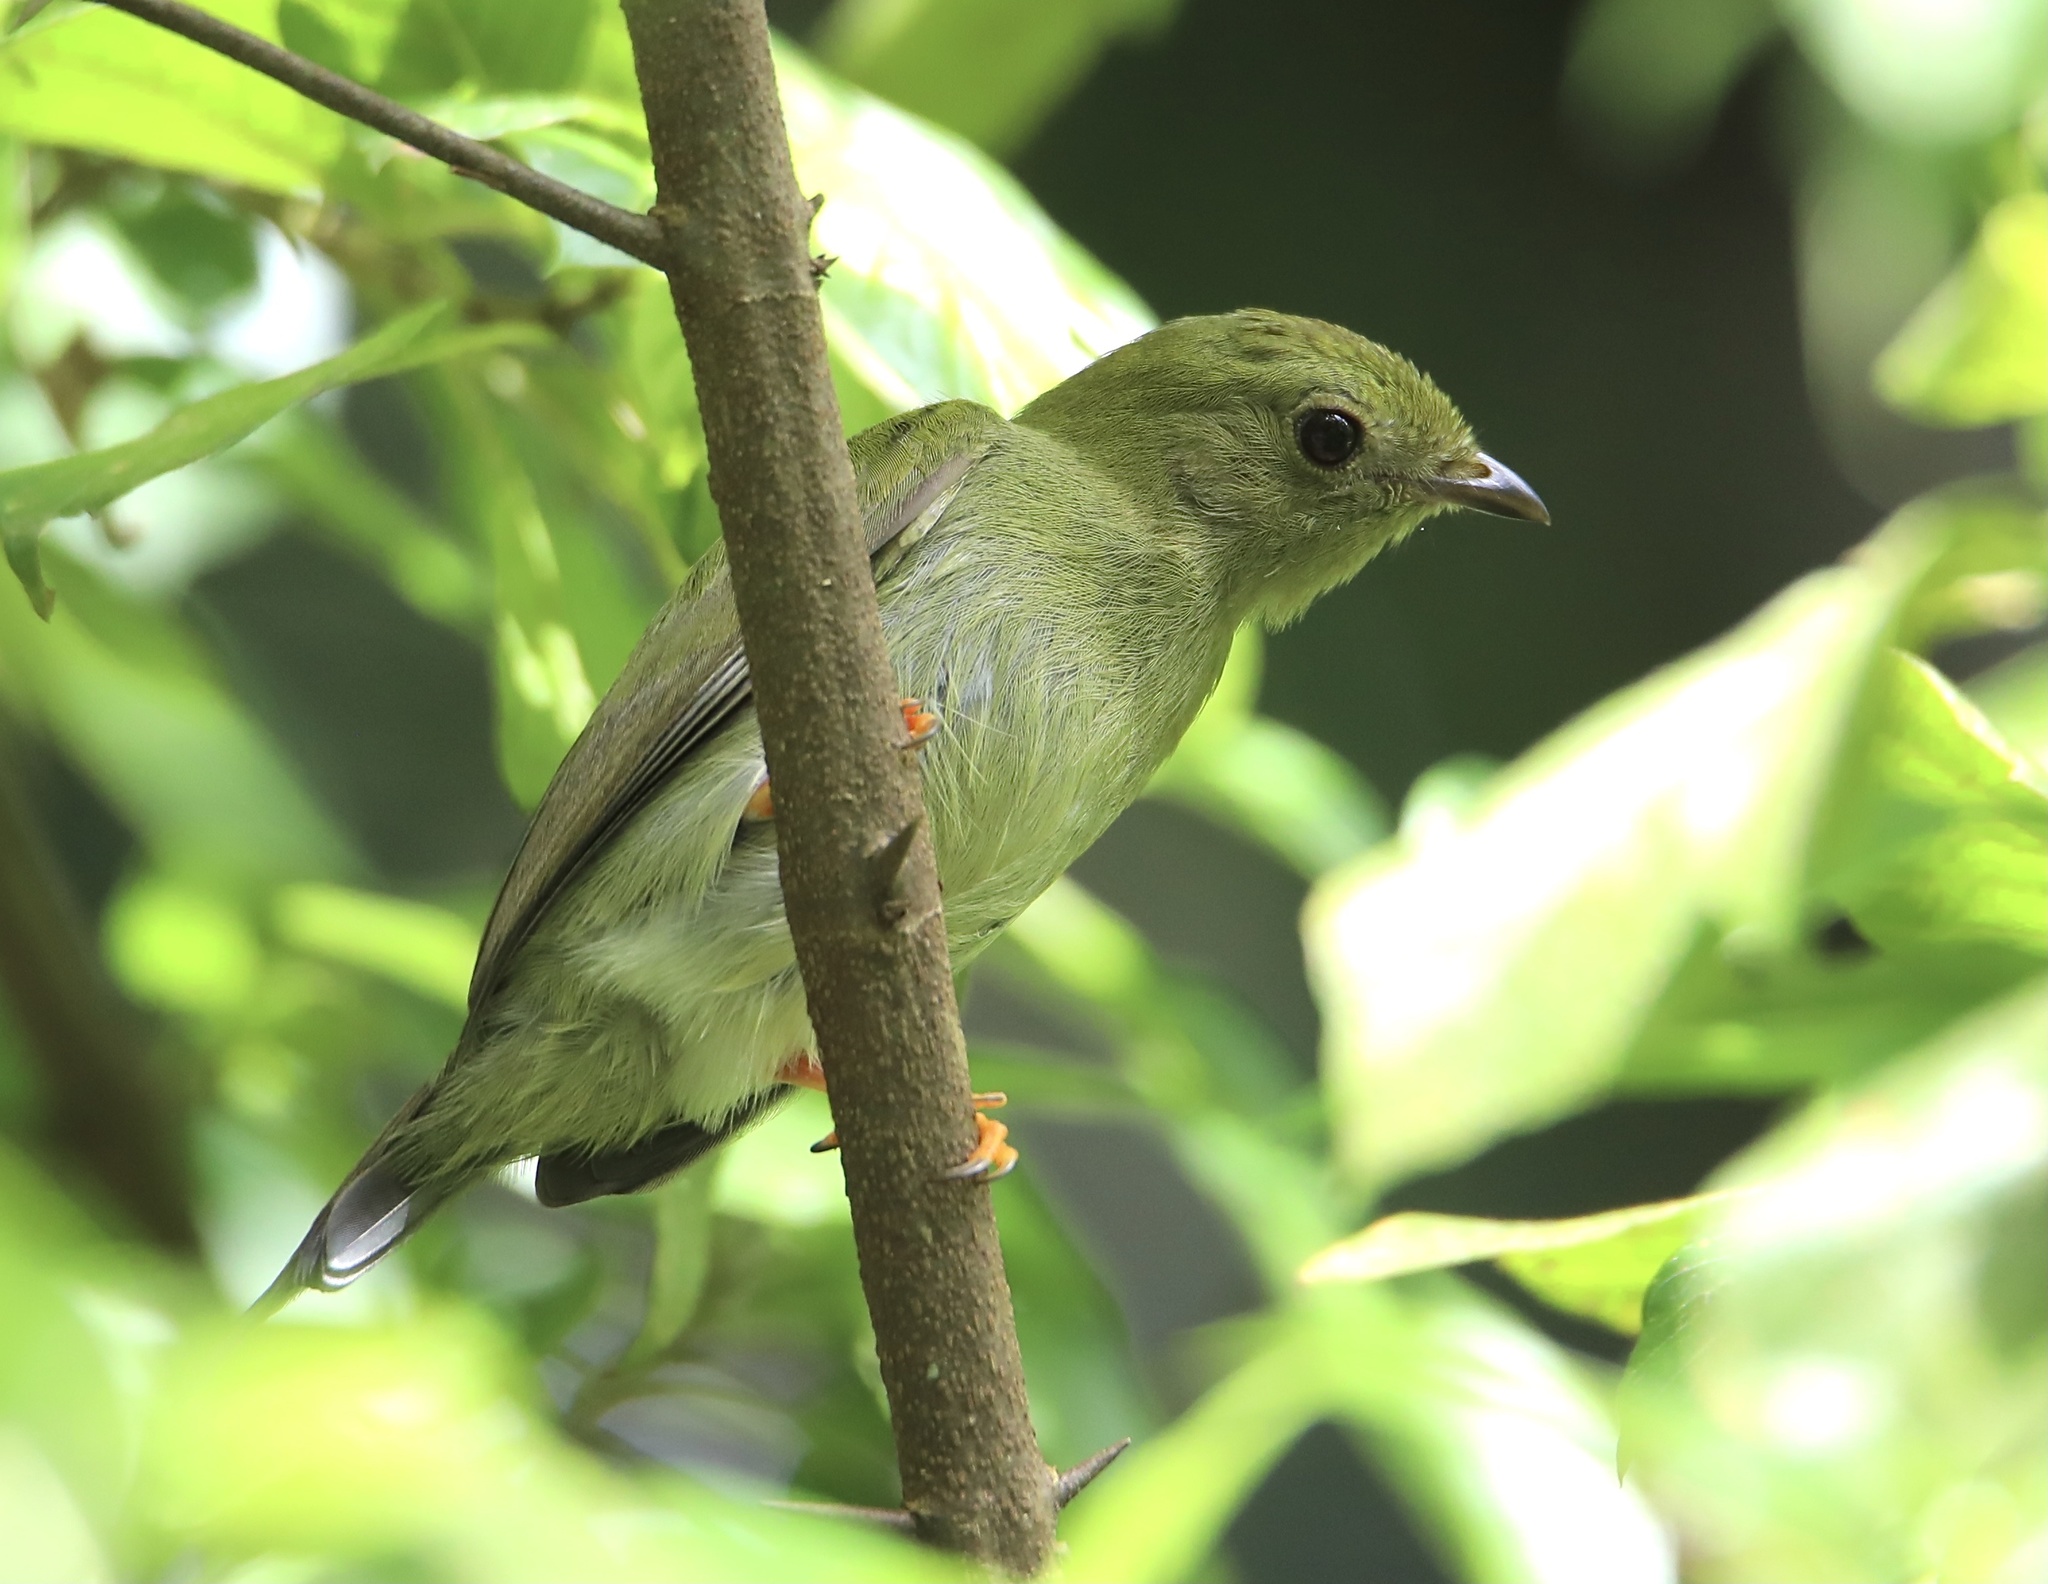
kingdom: Animalia
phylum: Chordata
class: Aves
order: Passeriformes
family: Pipridae
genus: Chiroxiphia
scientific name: Chiroxiphia lanceolata
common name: Lance-tailed manakin
